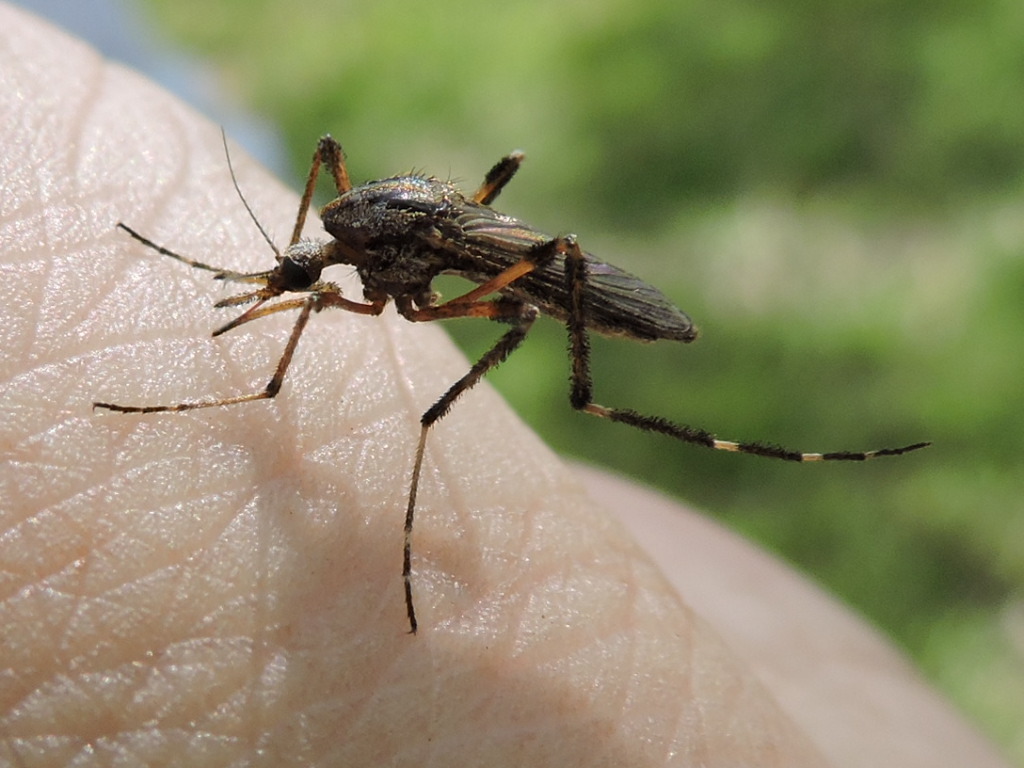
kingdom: Animalia
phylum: Arthropoda
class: Insecta
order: Diptera
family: Culicidae
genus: Psorophora
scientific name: Psorophora ciliata
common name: Gallinipper
